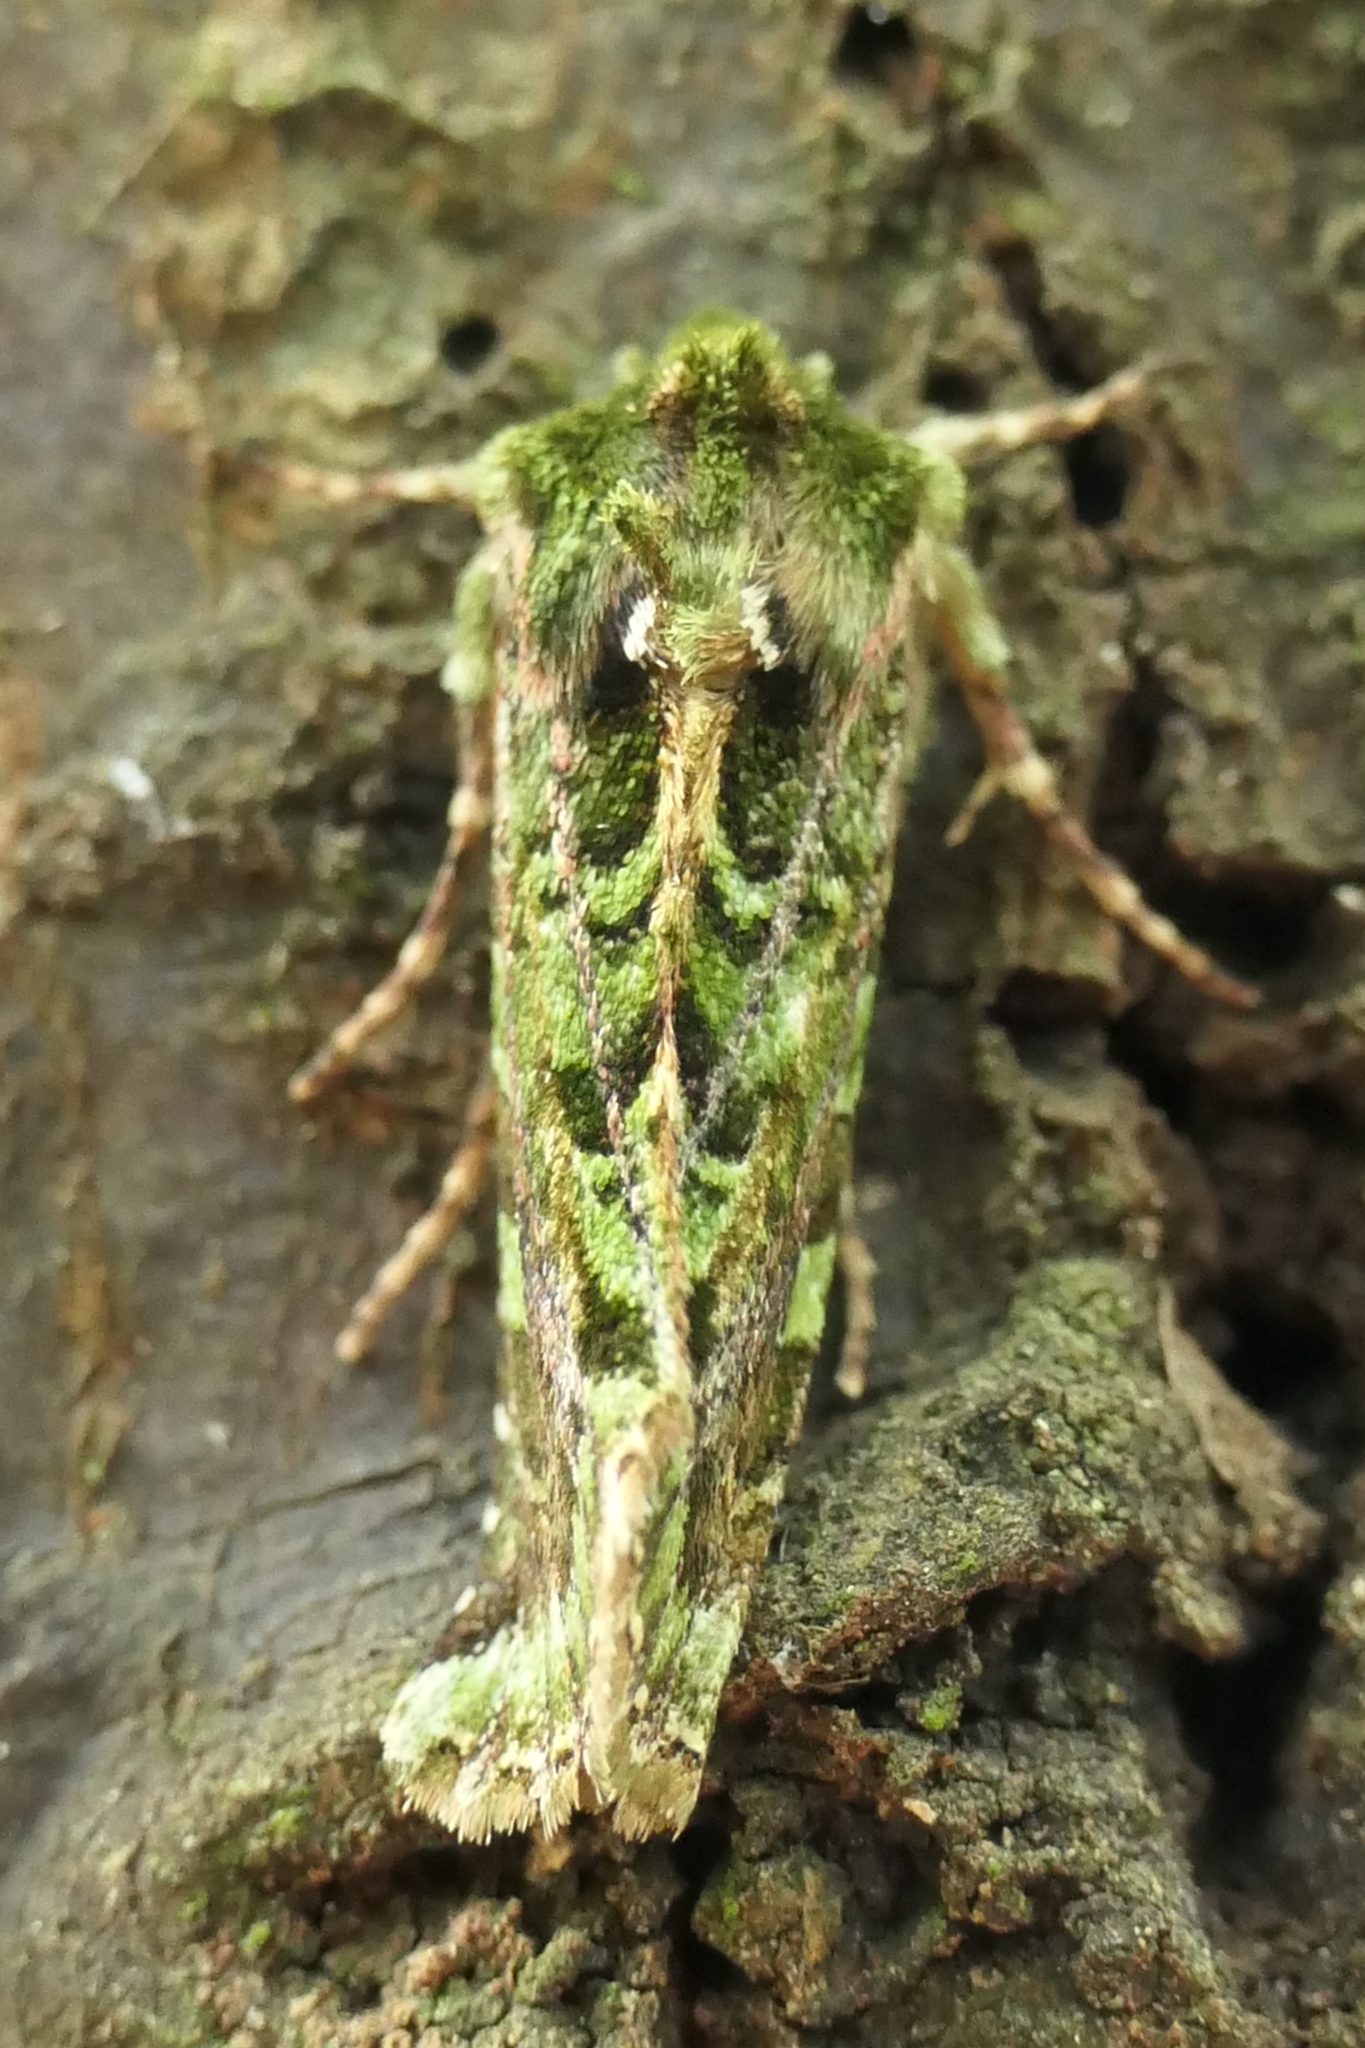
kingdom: Animalia
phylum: Arthropoda
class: Insecta
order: Lepidoptera
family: Noctuidae
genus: Feredayia
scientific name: Feredayia grammosa
